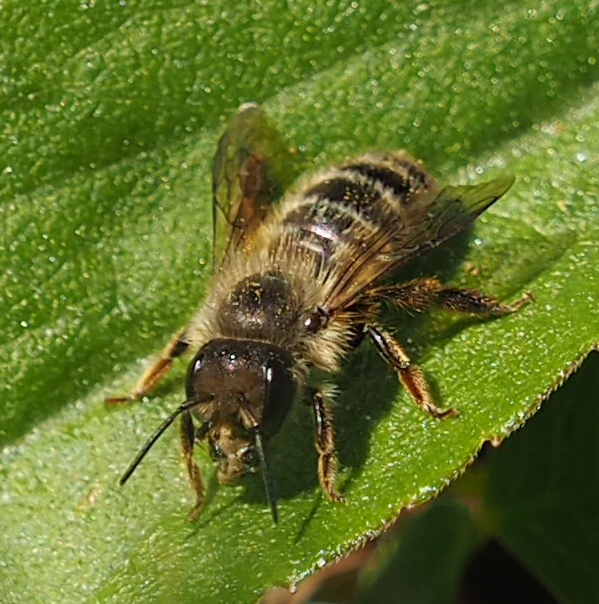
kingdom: Animalia
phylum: Arthropoda
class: Insecta
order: Hymenoptera
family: Megachilidae
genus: Osmia
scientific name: Osmia cornifrons
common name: Horn-faced bee
